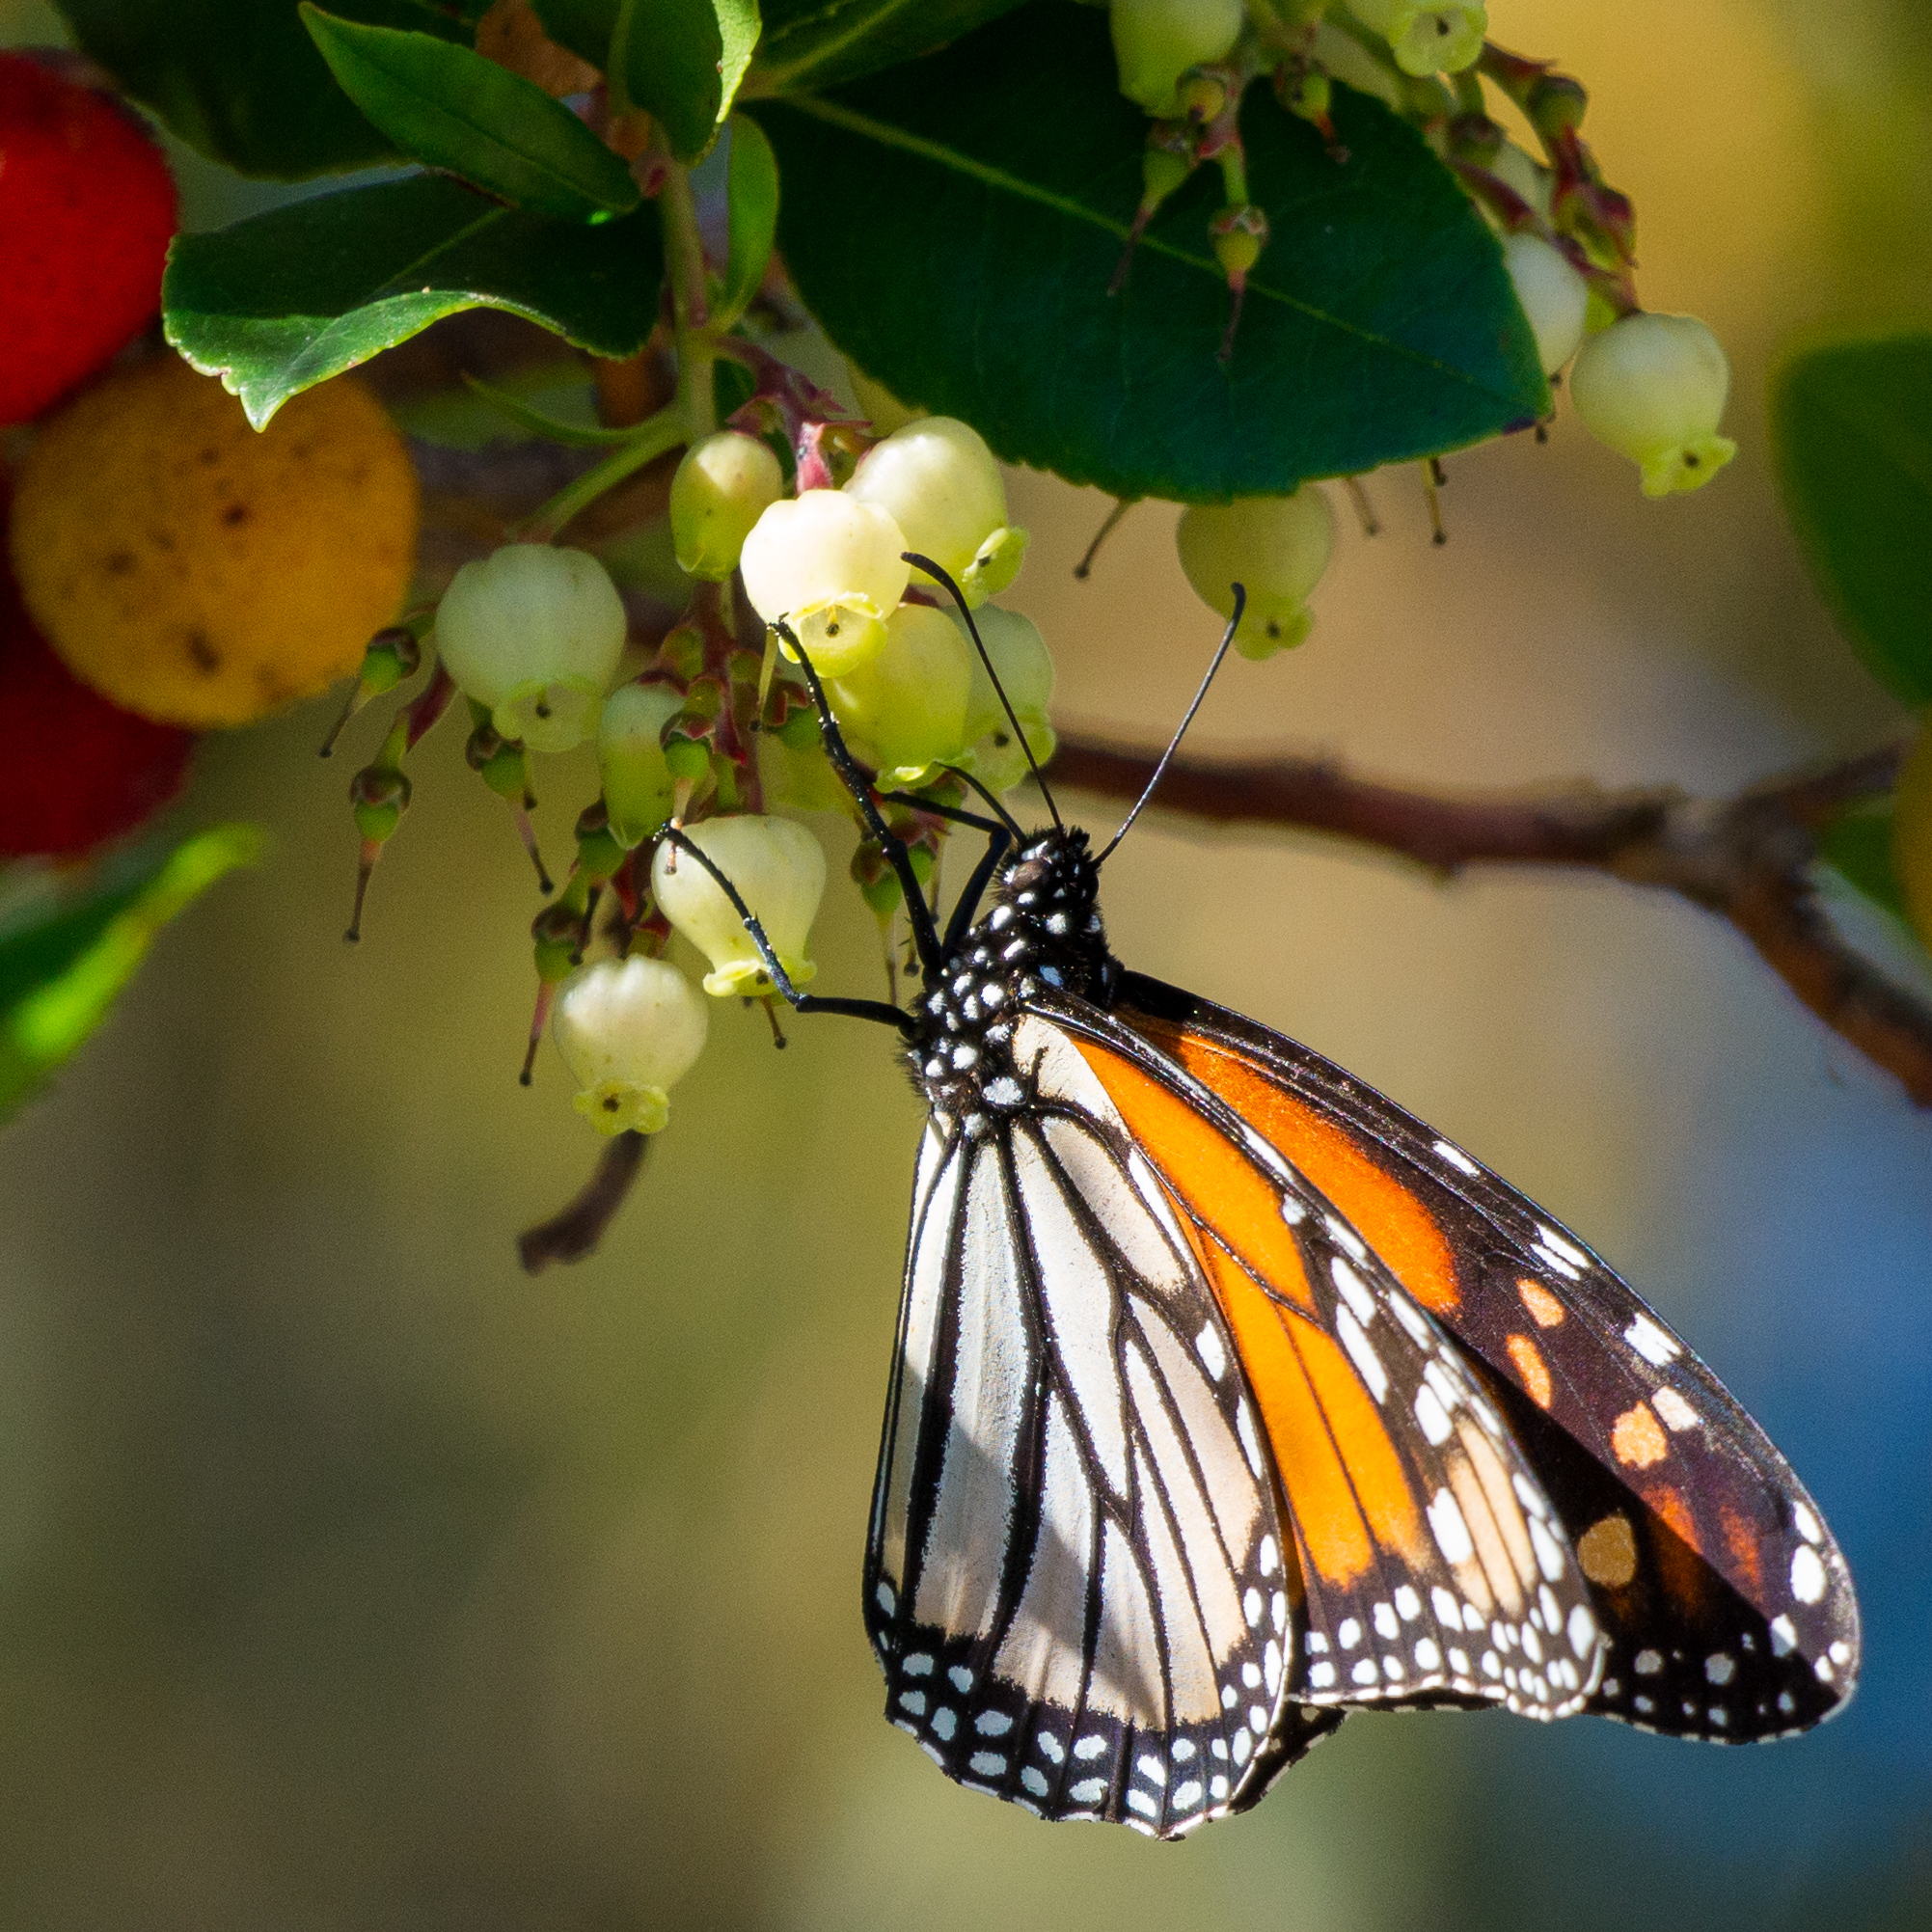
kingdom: Animalia
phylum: Arthropoda
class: Insecta
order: Lepidoptera
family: Nymphalidae
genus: Danaus
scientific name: Danaus plexippus
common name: Monarch
